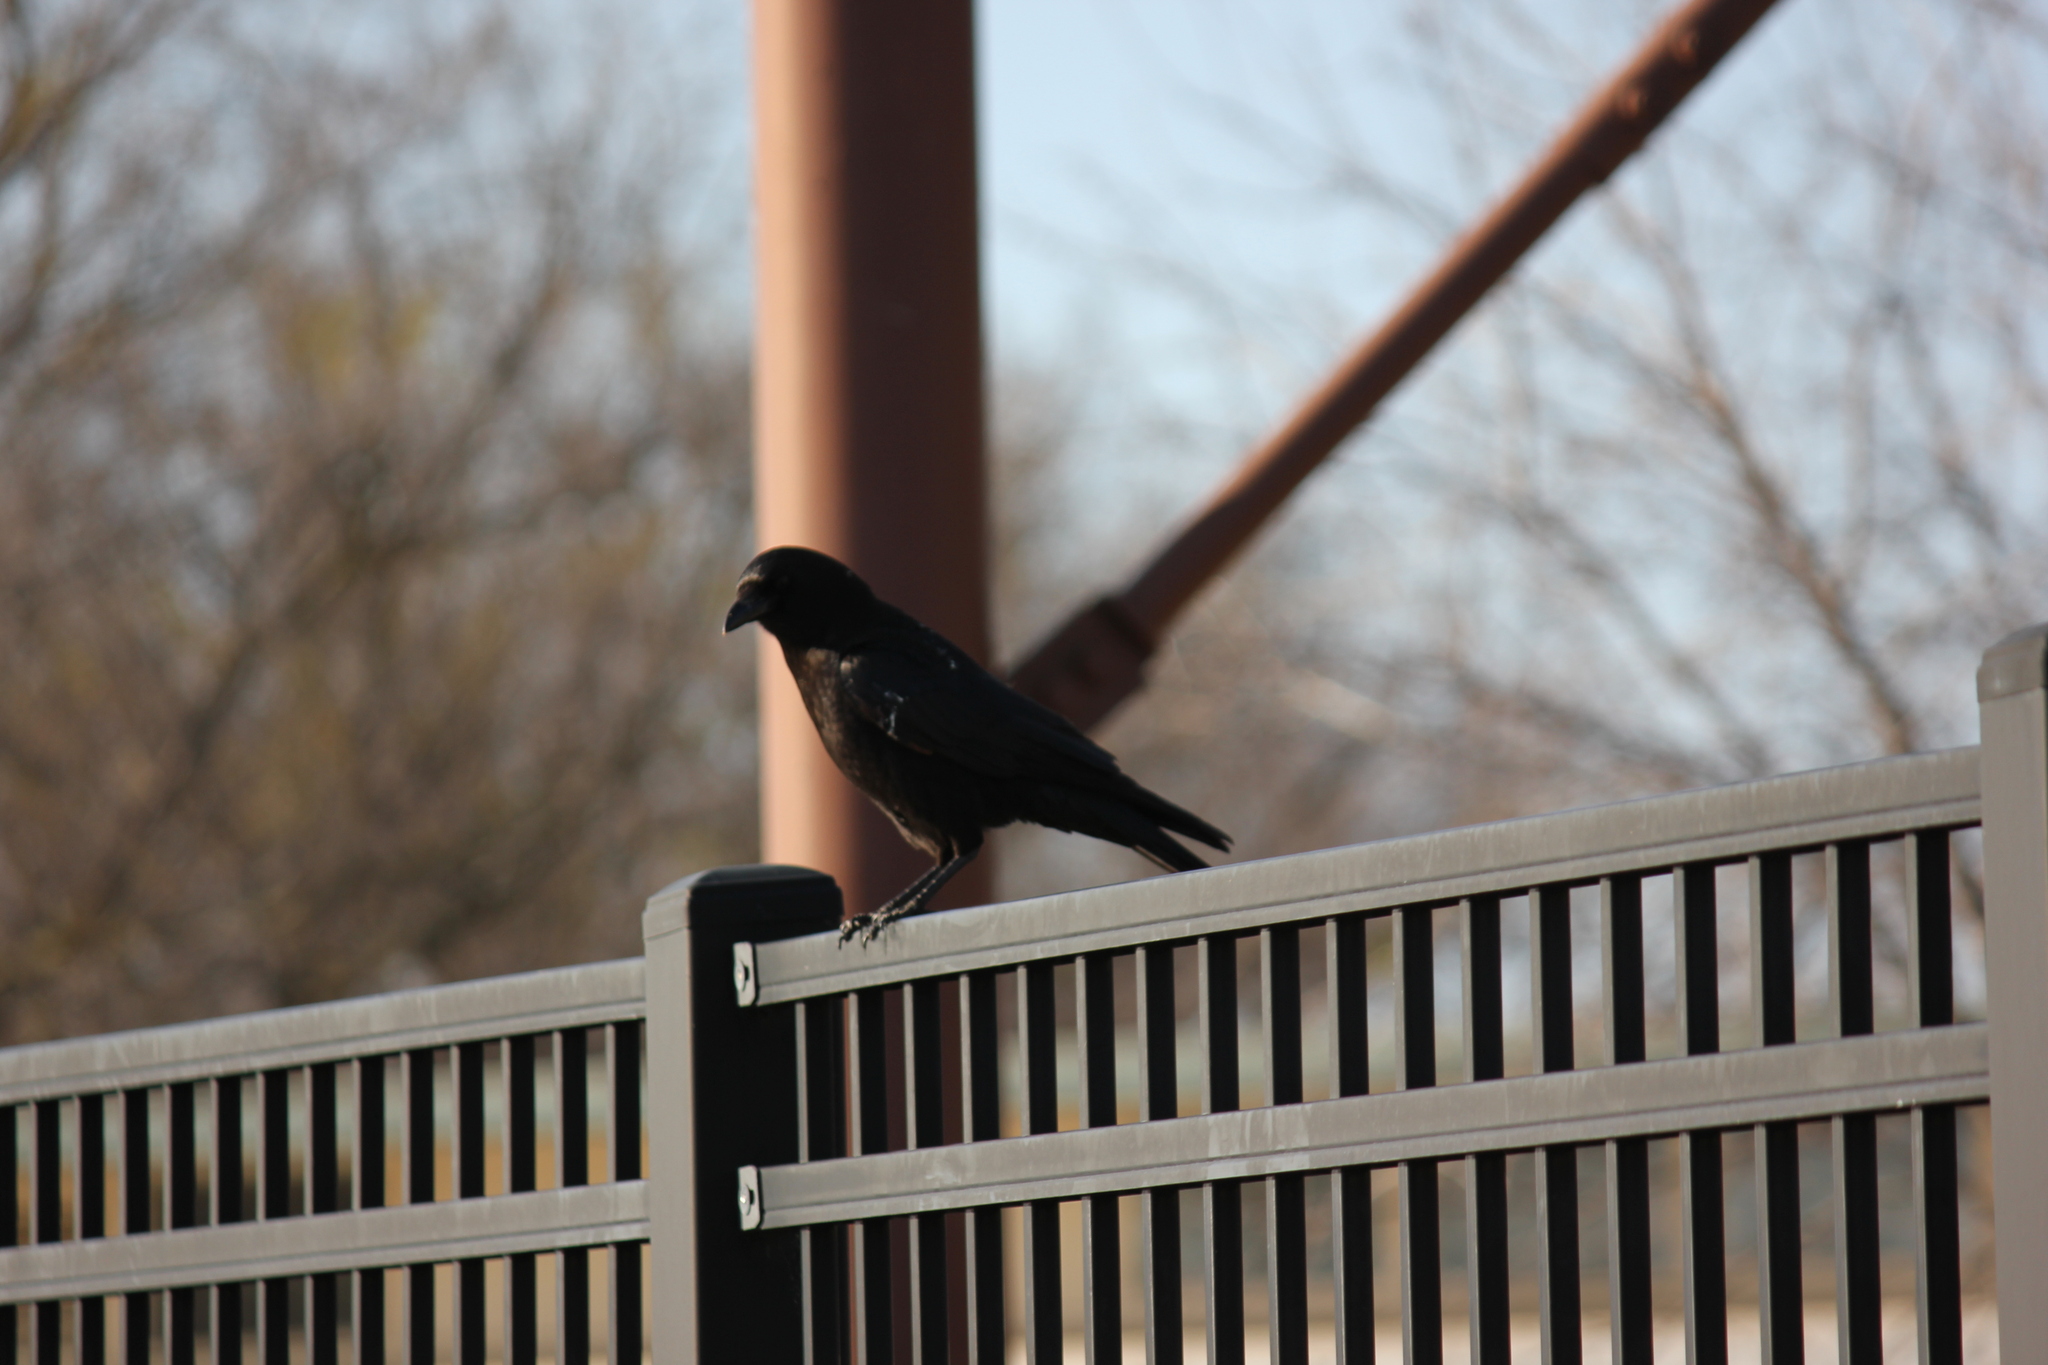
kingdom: Animalia
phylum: Chordata
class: Aves
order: Passeriformes
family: Corvidae
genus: Corvus
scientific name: Corvus brachyrhynchos
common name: American crow
